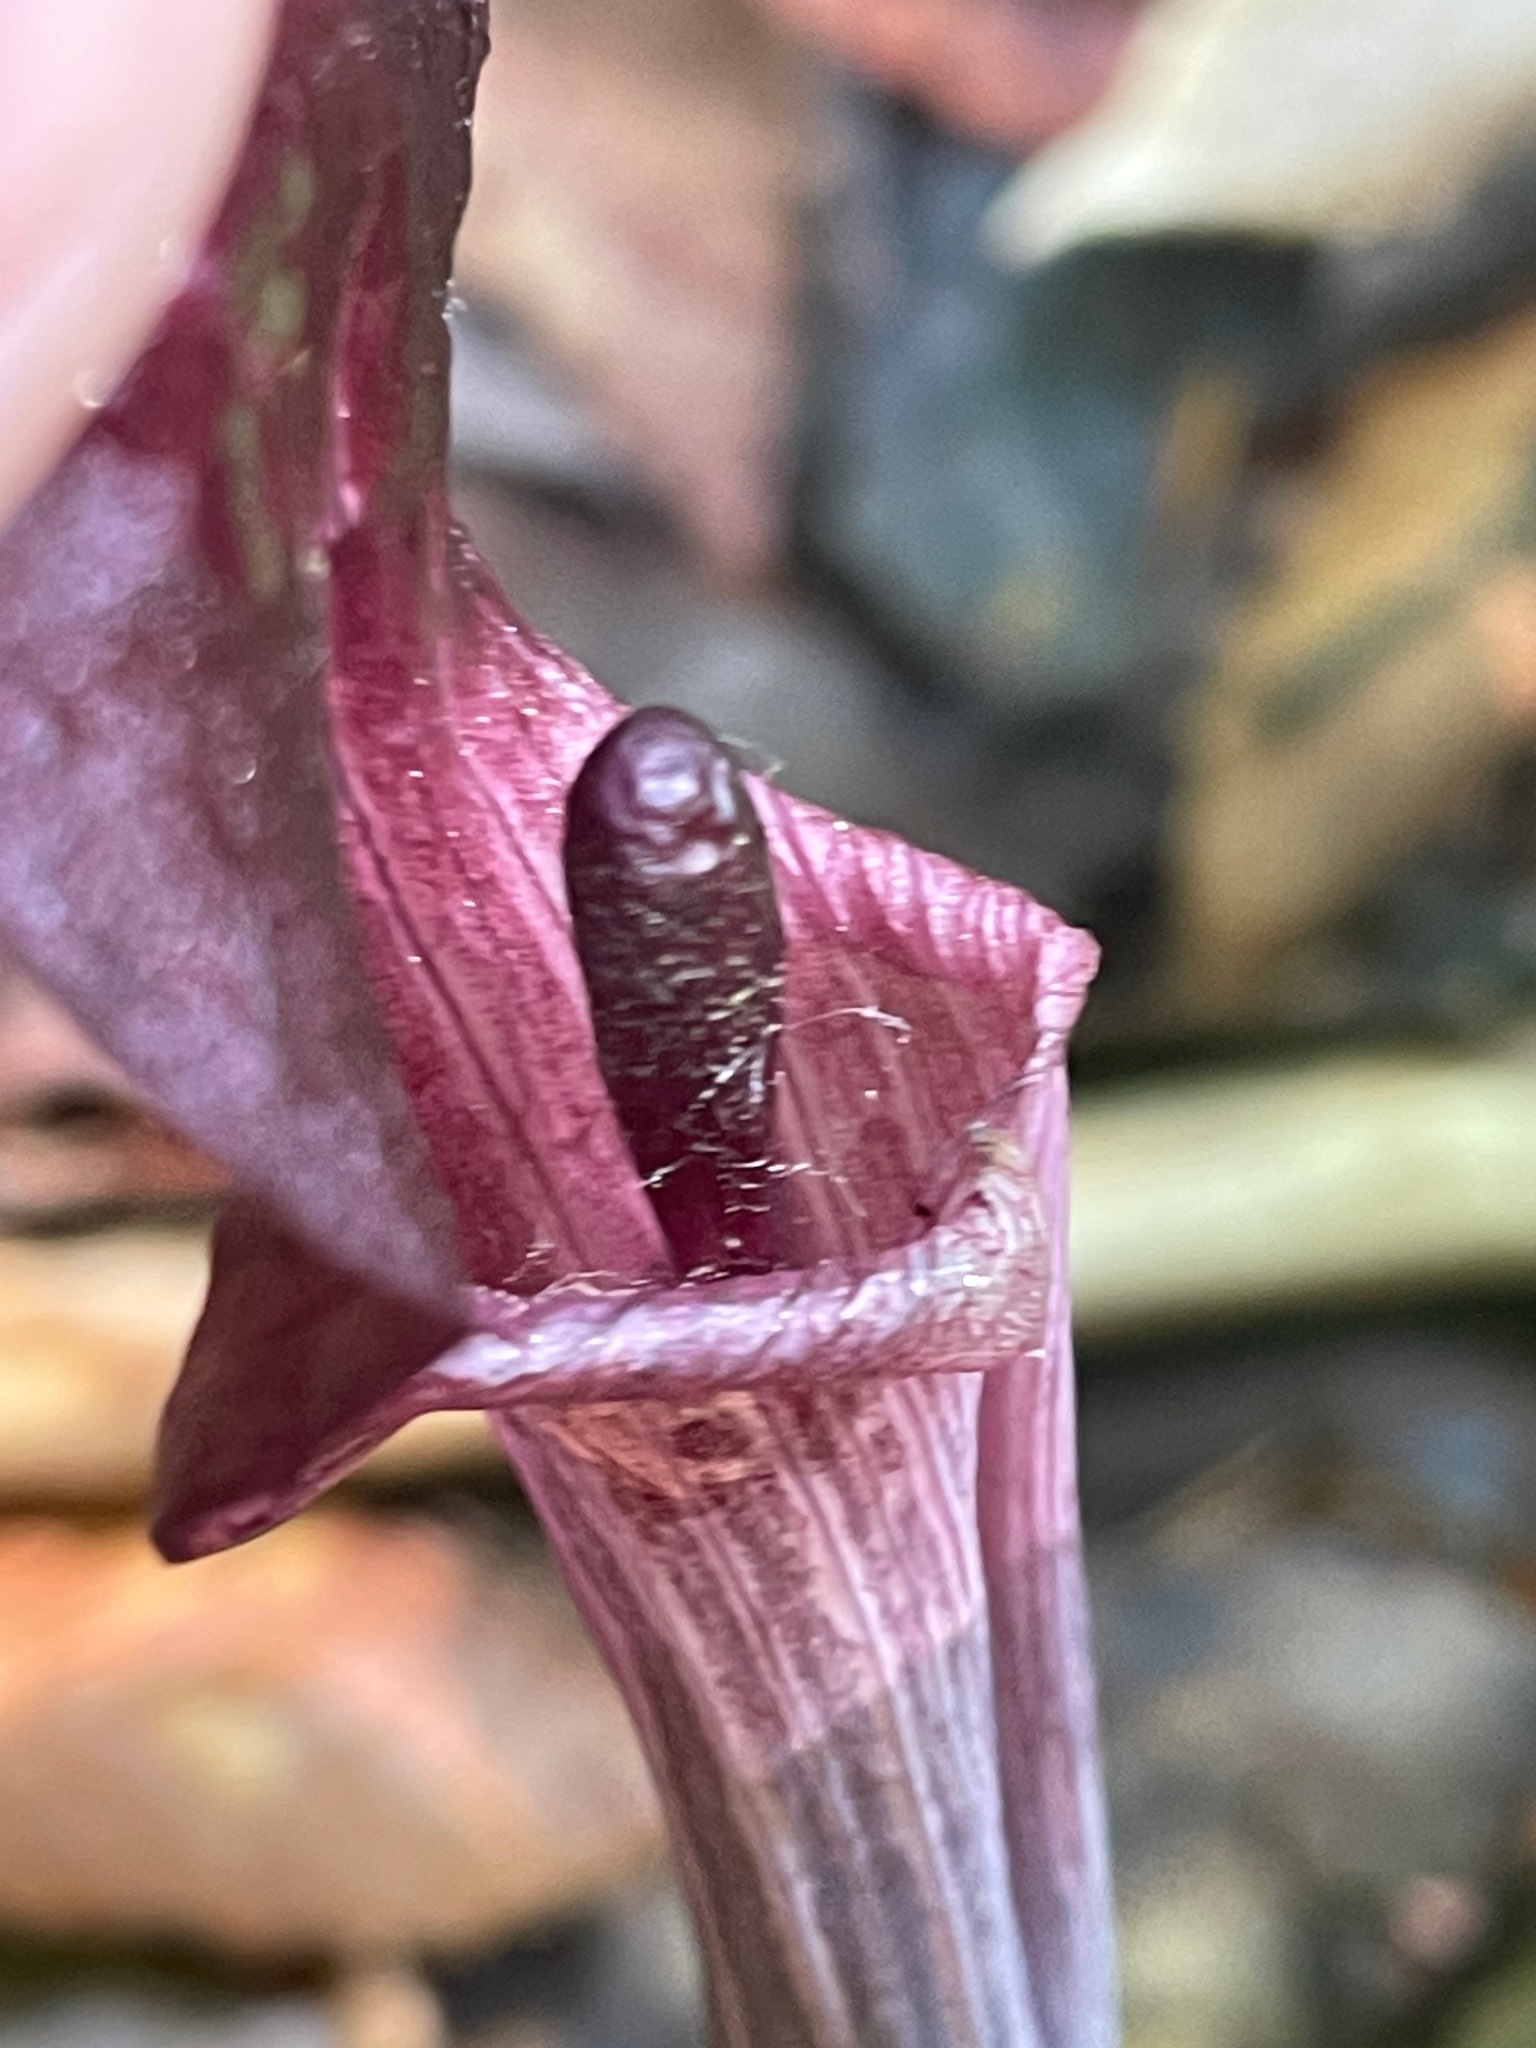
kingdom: Plantae
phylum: Tracheophyta
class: Liliopsida
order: Alismatales
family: Araceae
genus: Arisaema
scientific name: Arisaema triphyllum
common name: Jack-in-the-pulpit
